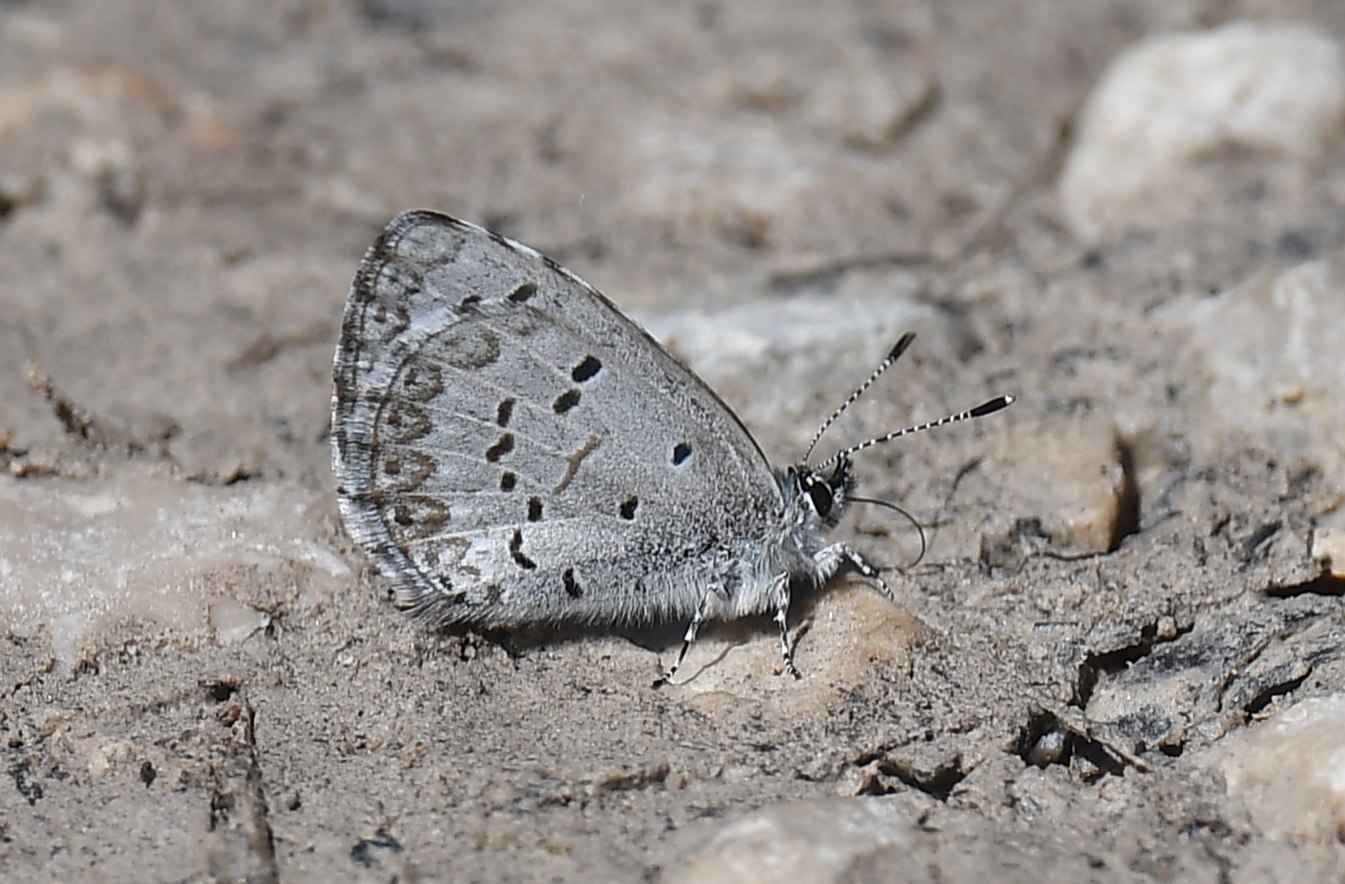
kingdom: Animalia
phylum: Arthropoda
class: Insecta
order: Lepidoptera
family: Lycaenidae
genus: Celastrina
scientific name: Celastrina ladon
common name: Spring azure
